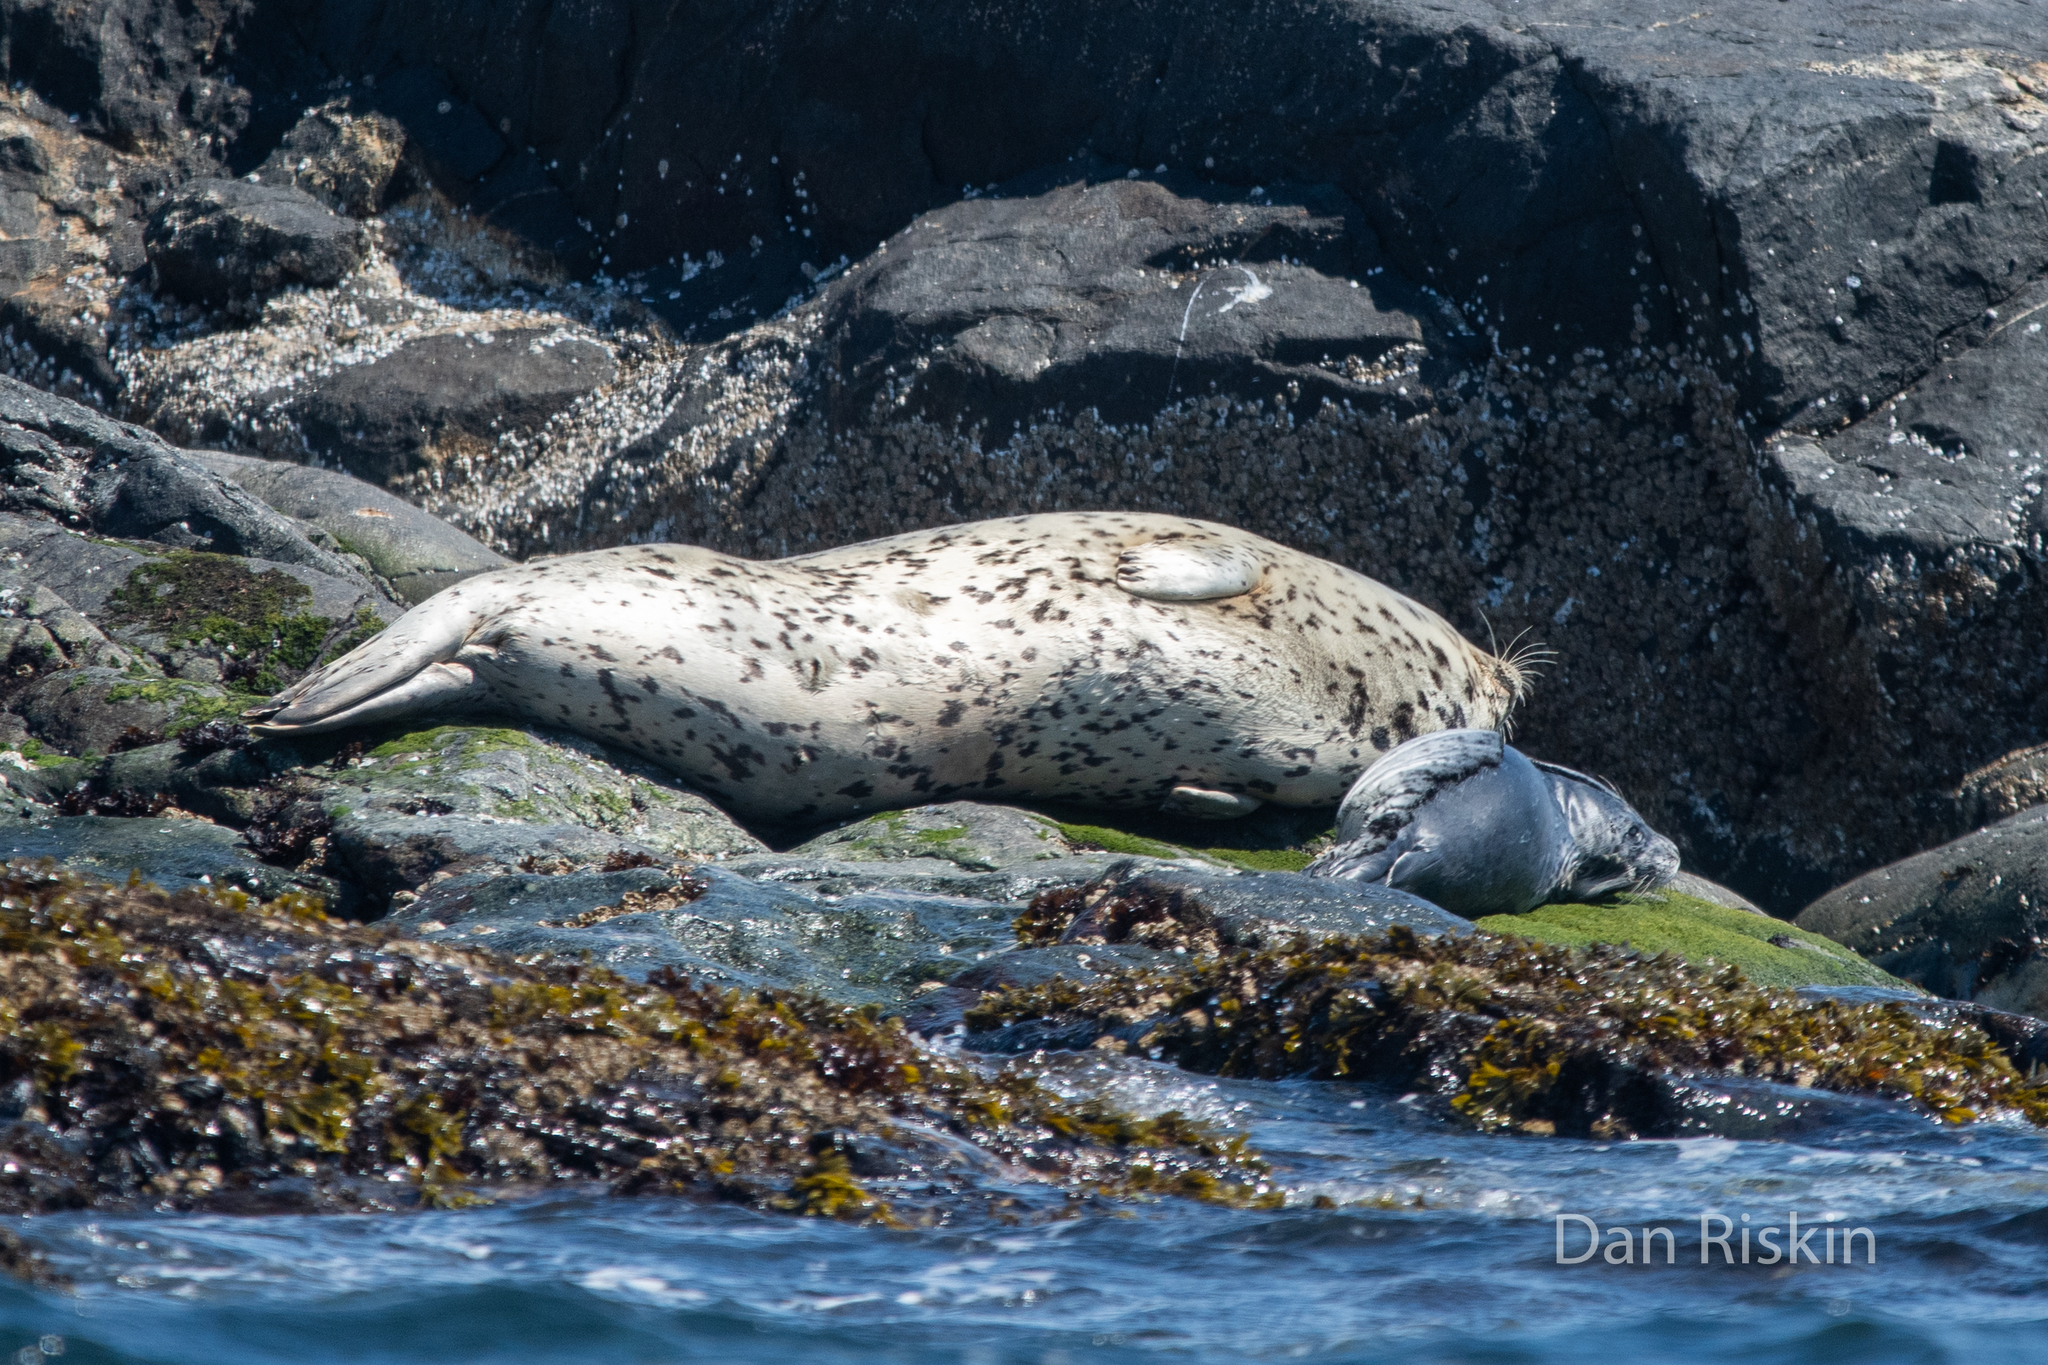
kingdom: Animalia
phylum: Chordata
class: Mammalia
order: Carnivora
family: Phocidae
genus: Phoca
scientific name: Phoca vitulina
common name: Harbor seal
